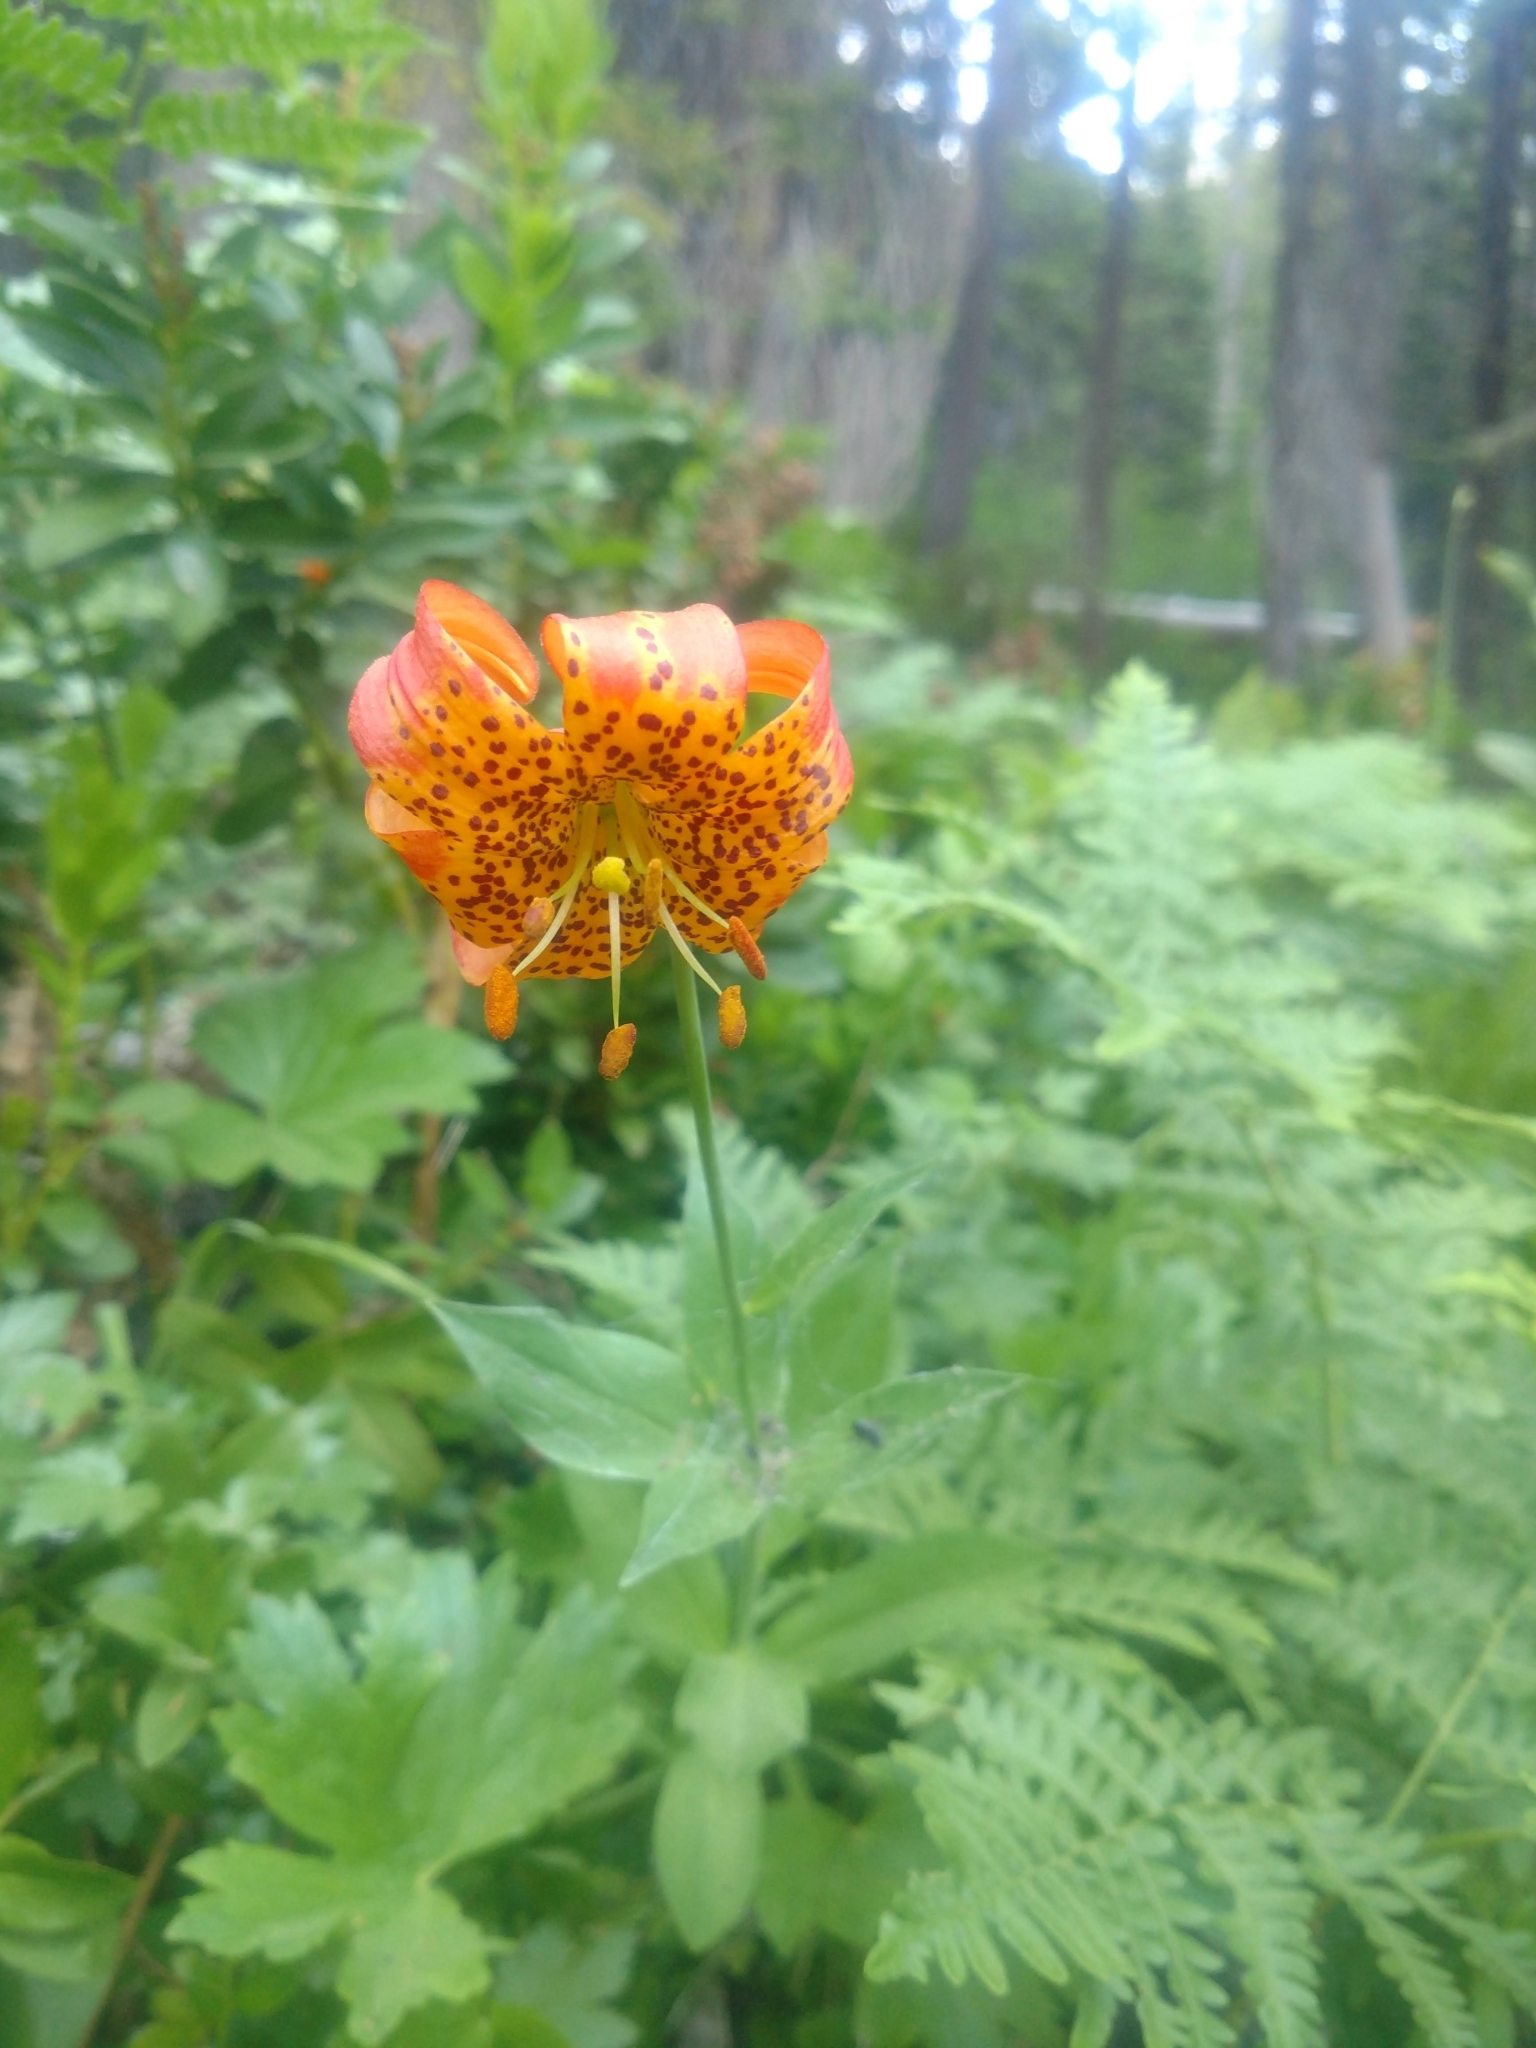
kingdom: Plantae
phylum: Tracheophyta
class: Liliopsida
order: Liliales
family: Liliaceae
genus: Lilium
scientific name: Lilium pardalinum
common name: Panther lily
